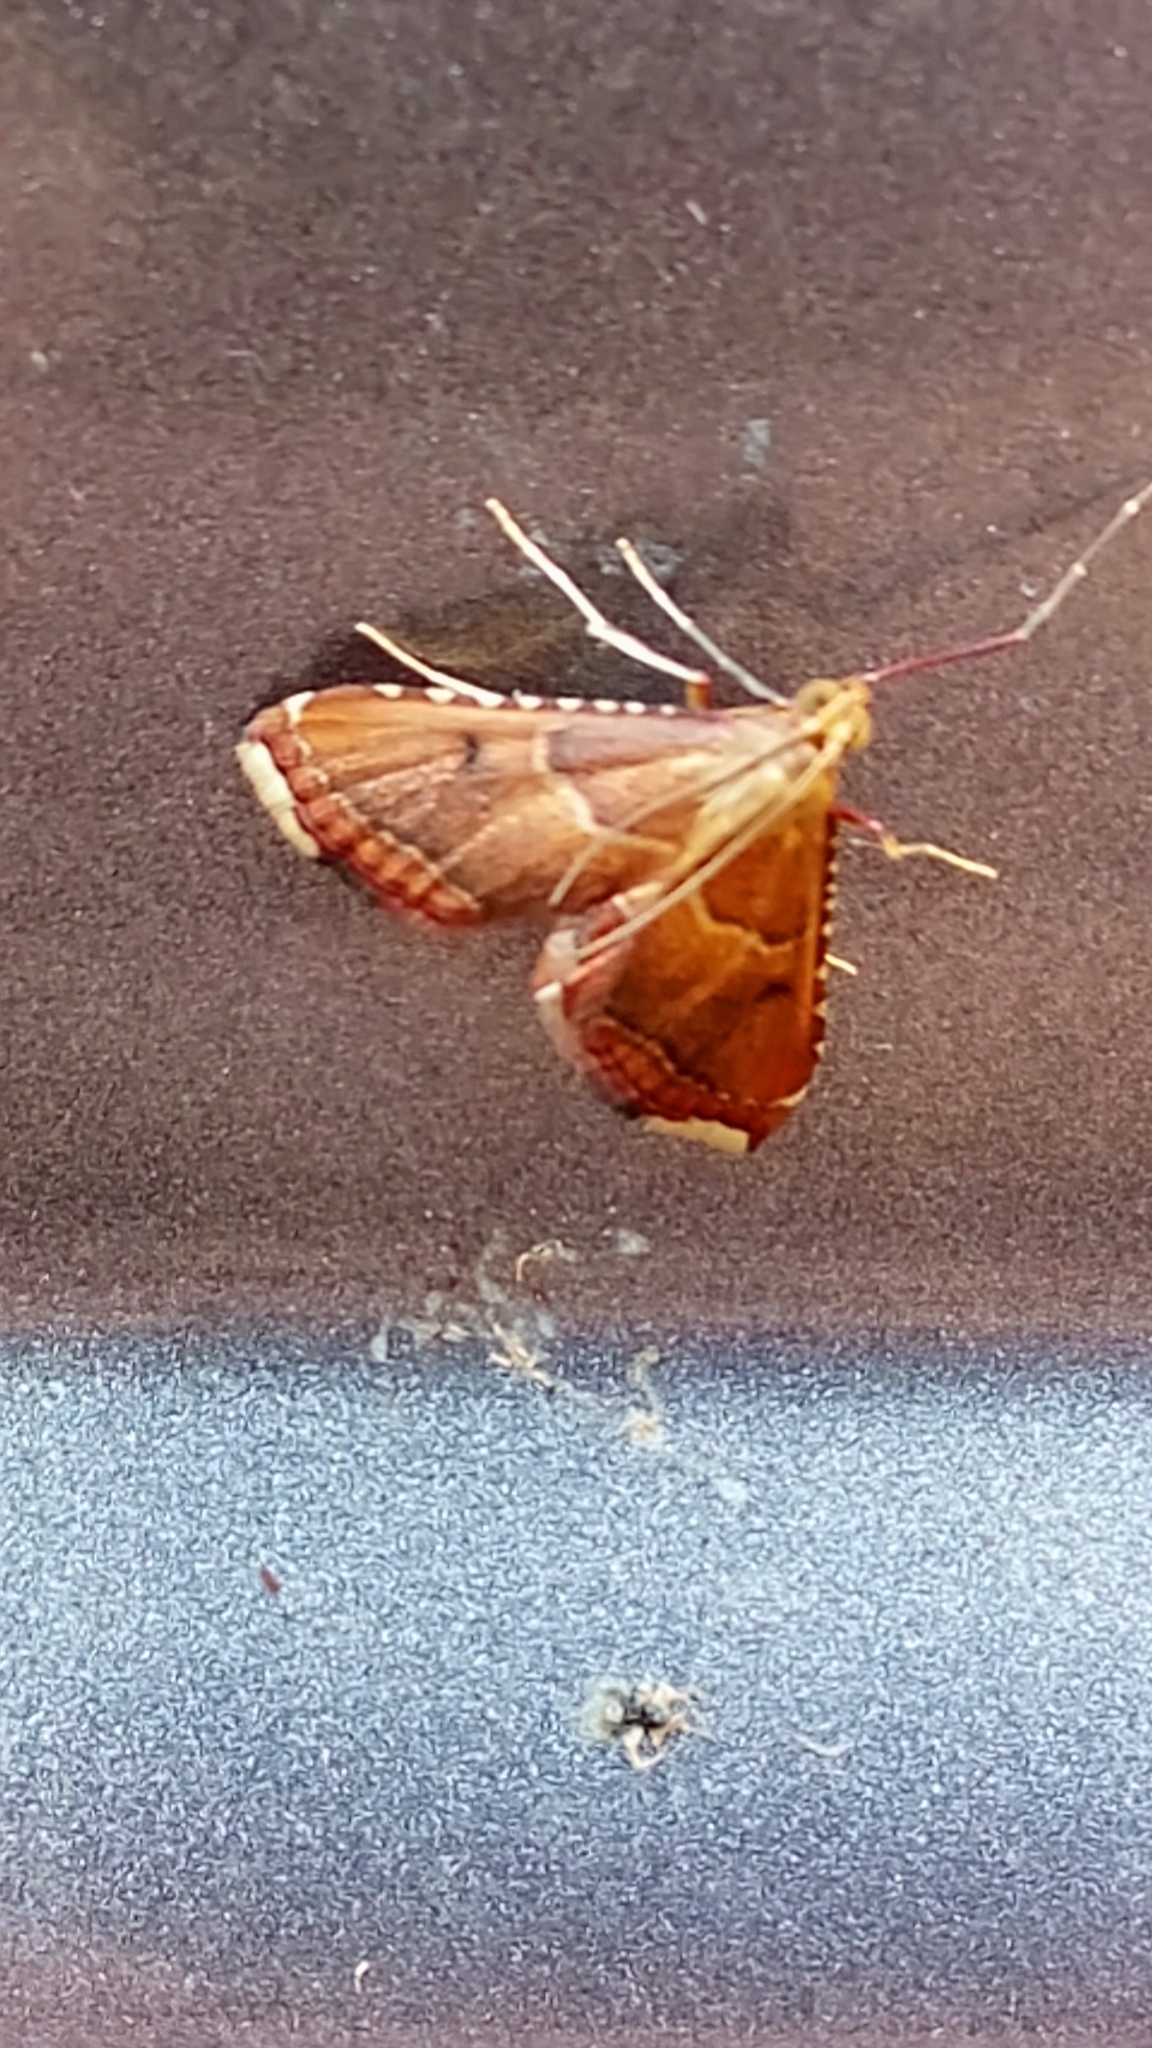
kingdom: Animalia
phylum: Arthropoda
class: Insecta
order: Lepidoptera
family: Pyralidae
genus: Endotricha
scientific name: Endotricha flammealis
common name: Rosy tabby
